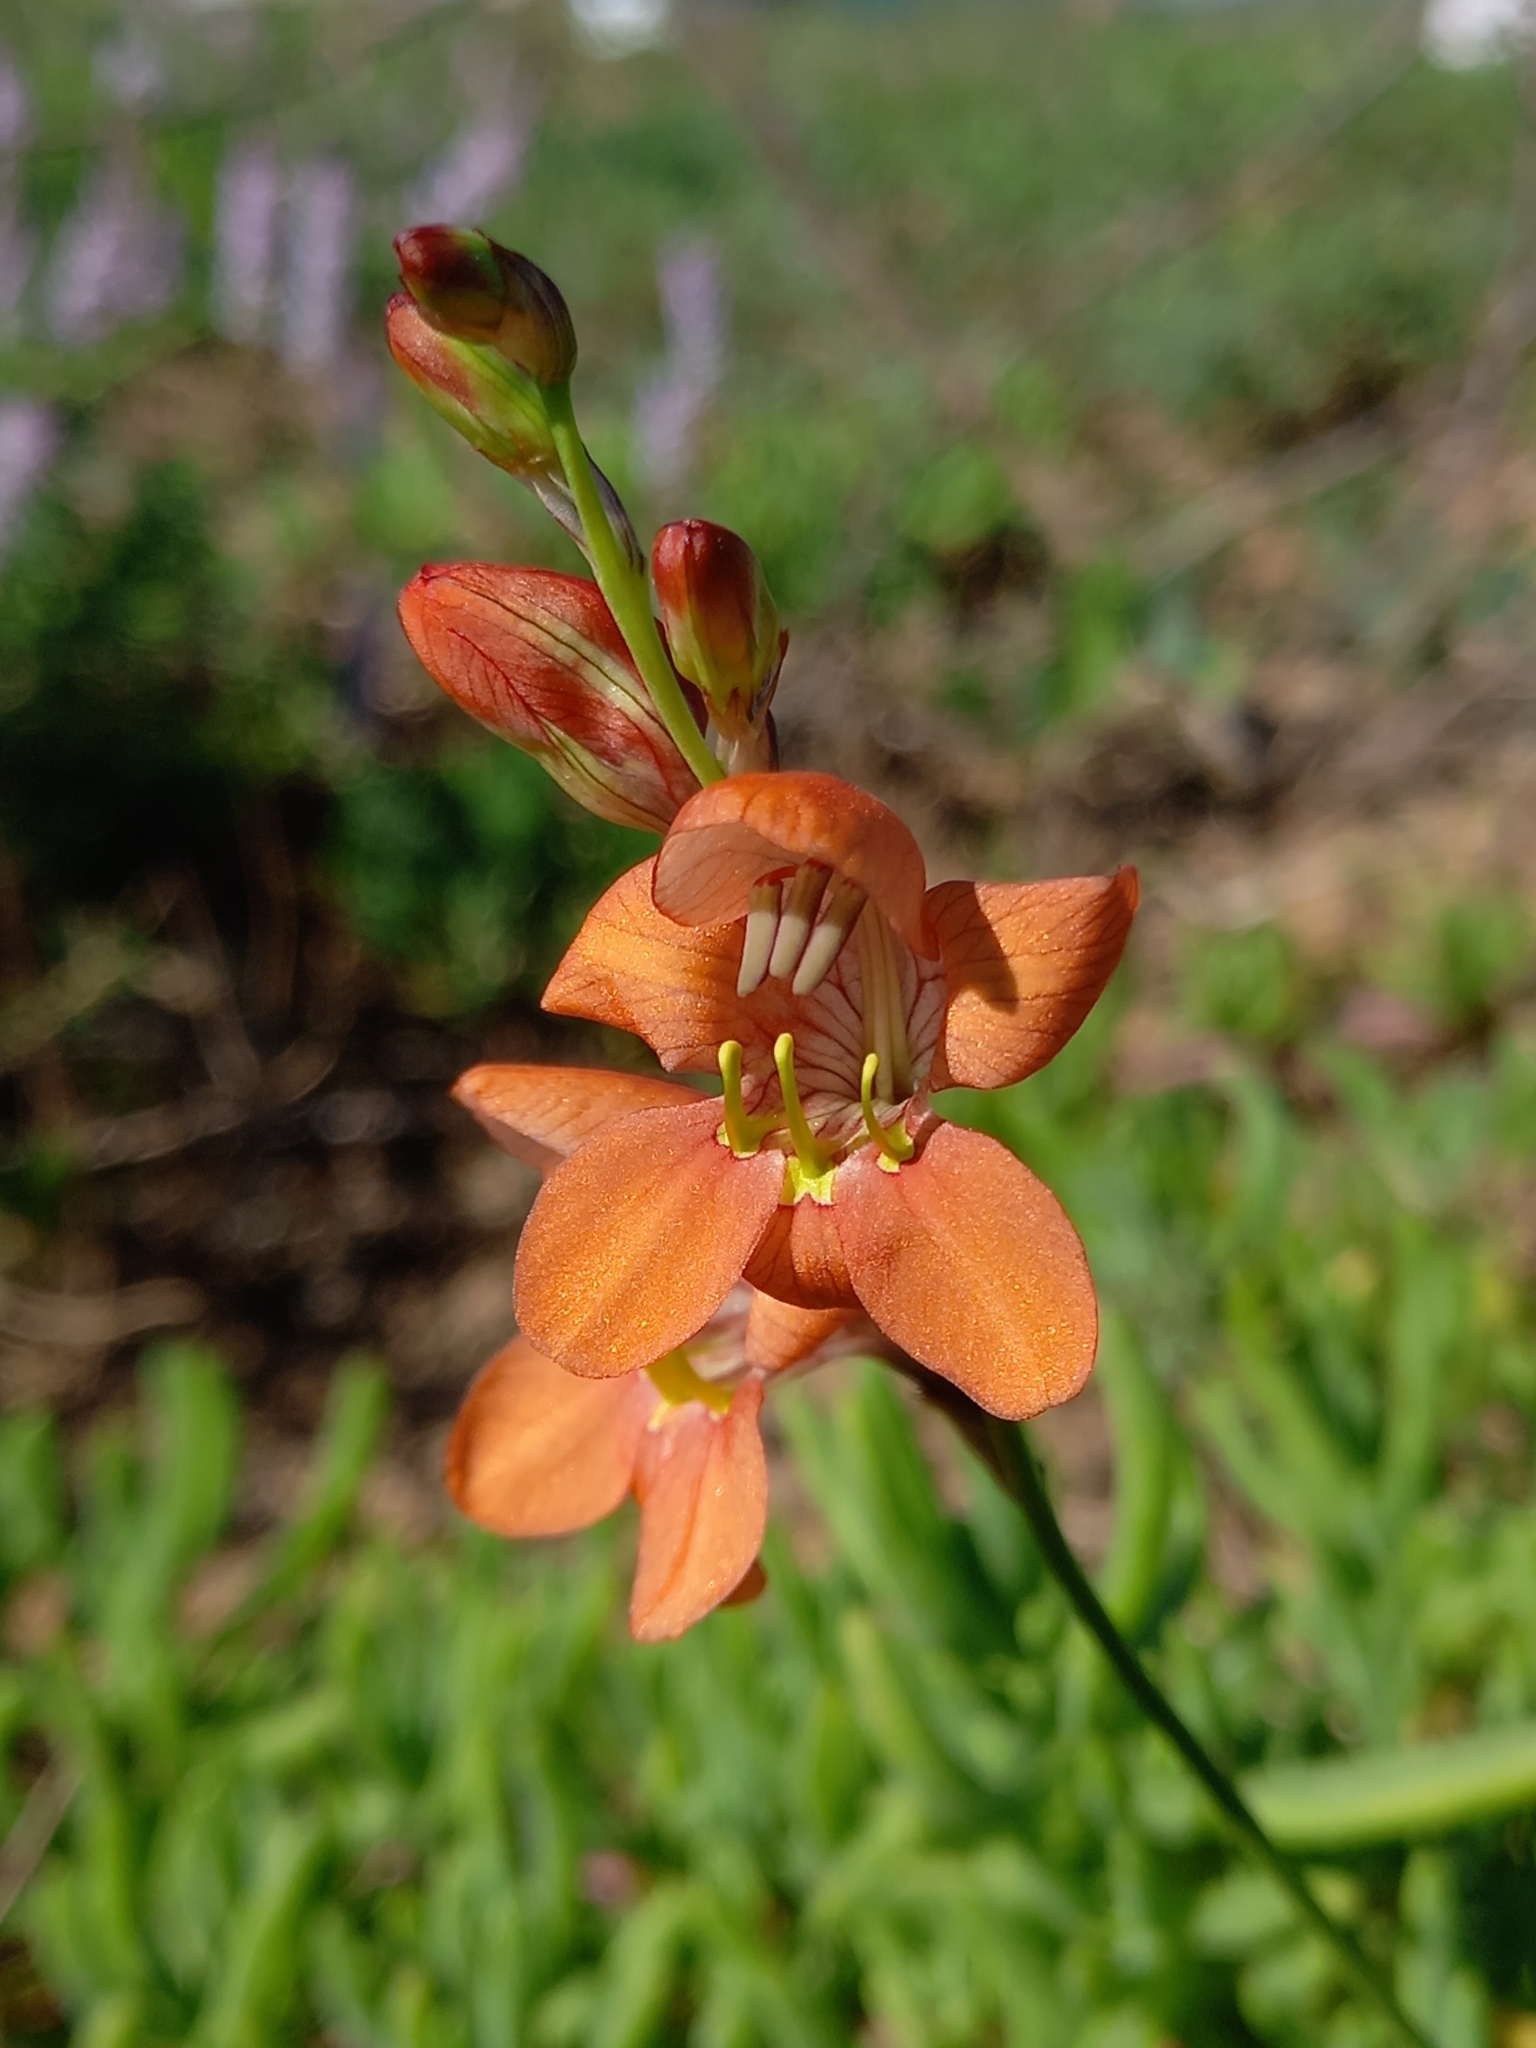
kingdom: Plantae
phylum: Tracheophyta
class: Liliopsida
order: Asparagales
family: Iridaceae
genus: Tritonia
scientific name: Tritonia laxifolia
